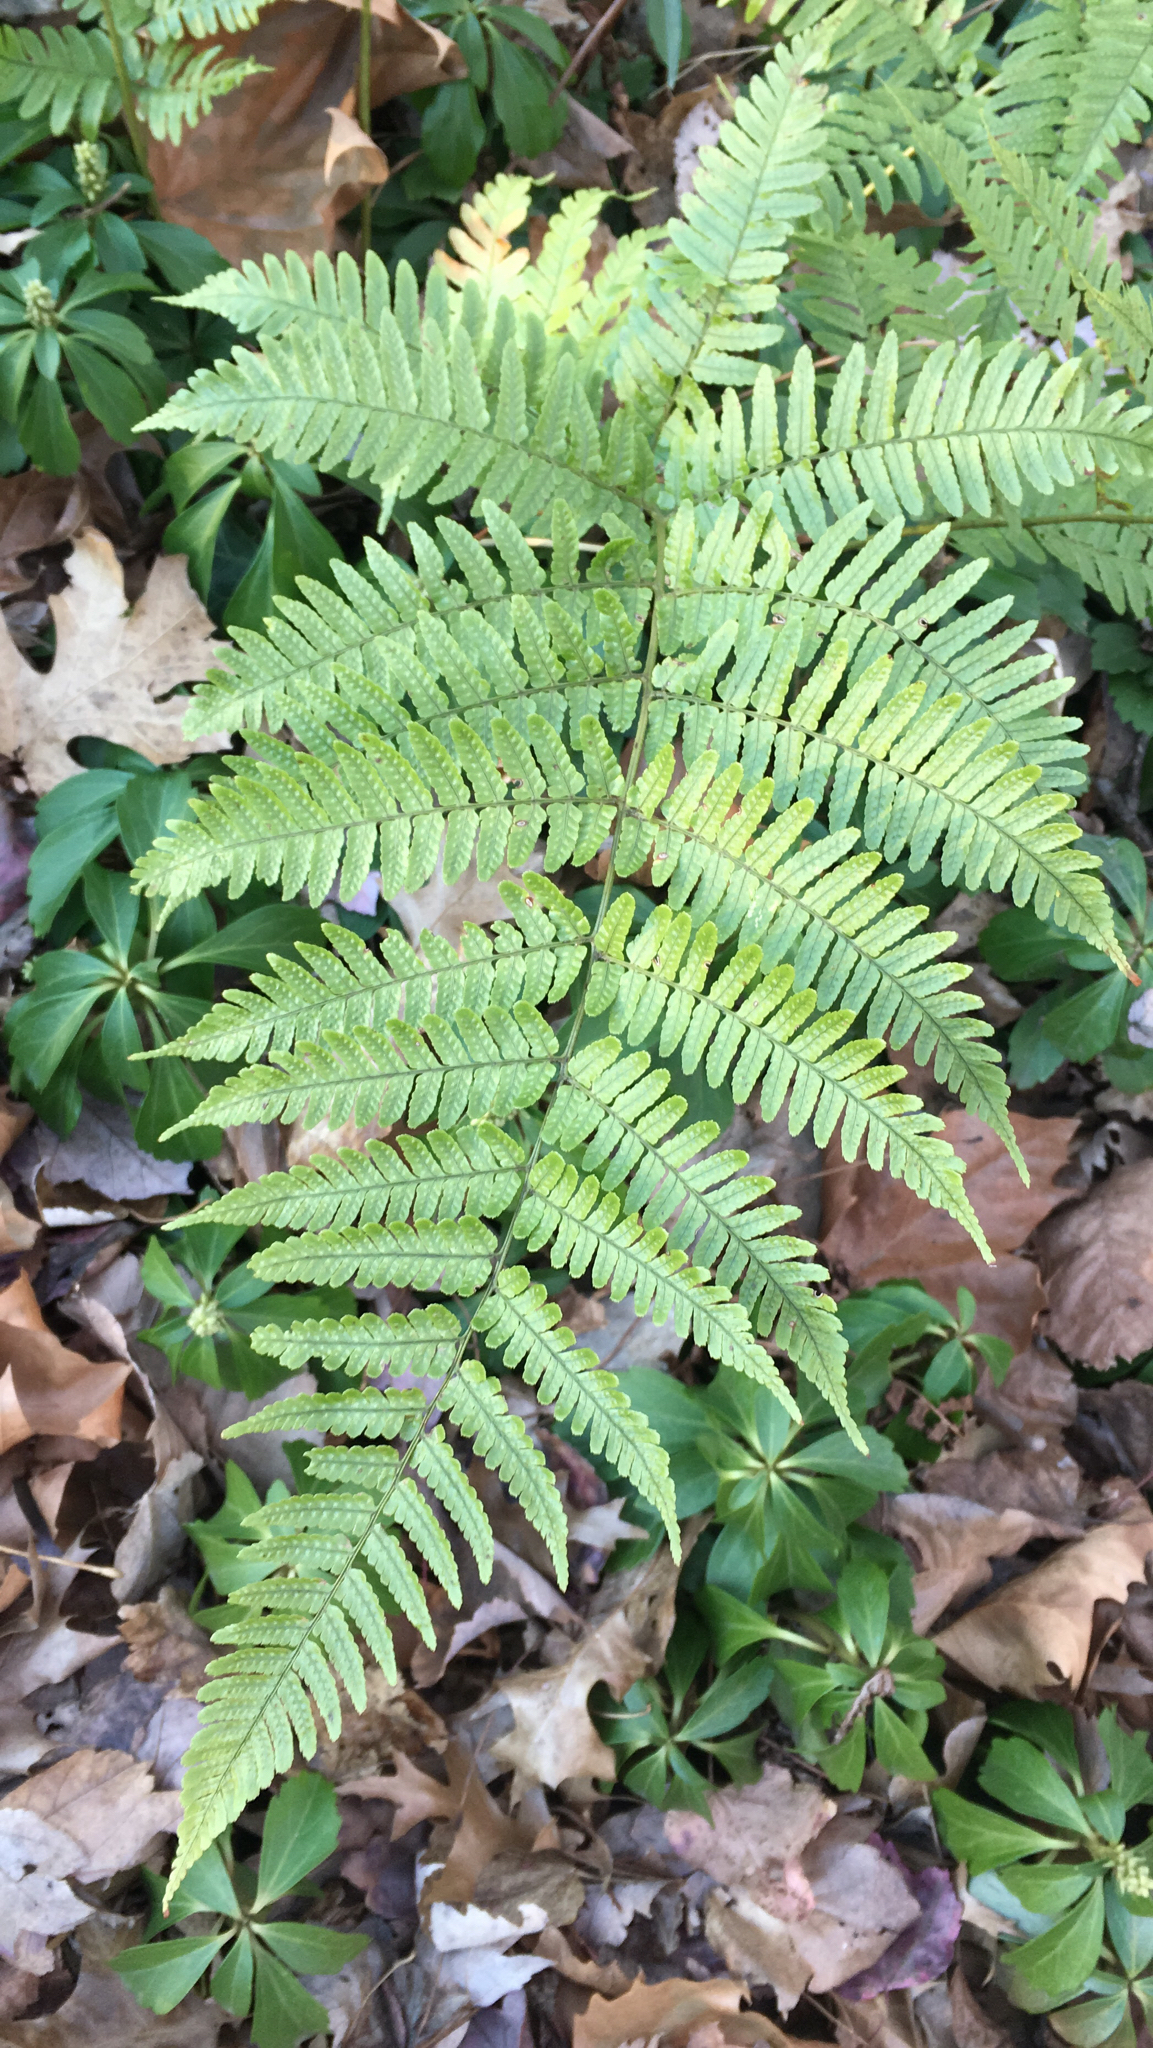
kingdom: Plantae
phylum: Tracheophyta
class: Polypodiopsida
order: Polypodiales
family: Dryopteridaceae
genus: Dryopteris
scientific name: Dryopteris erythrosora
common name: Autumn fern
